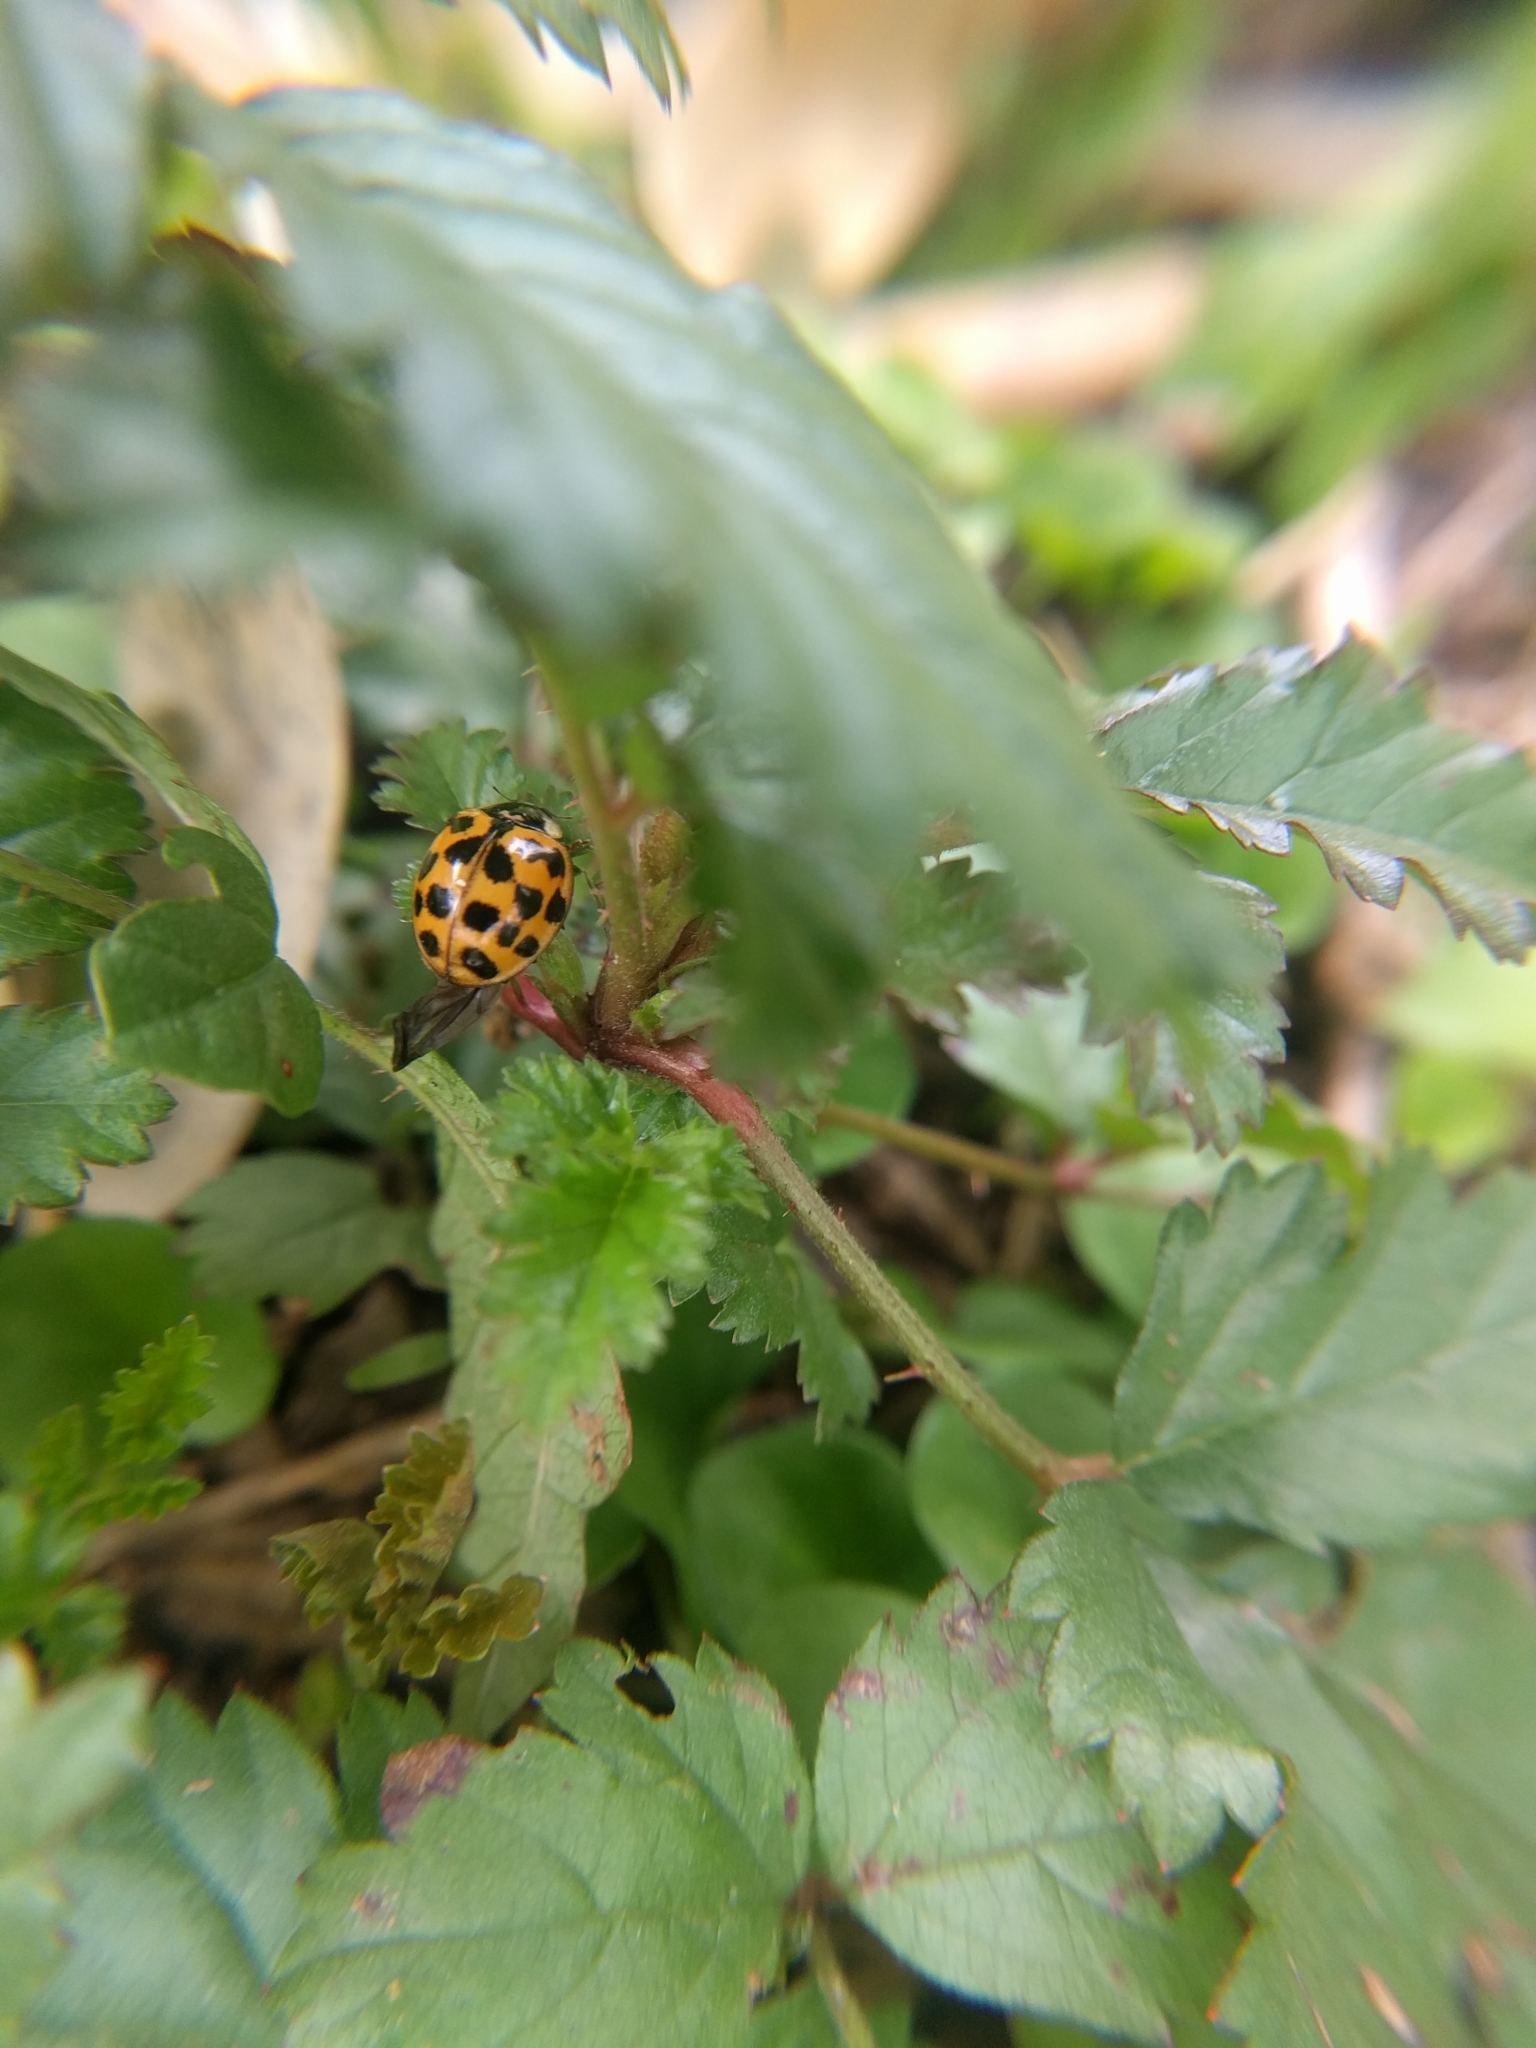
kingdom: Animalia
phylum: Arthropoda
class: Insecta
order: Coleoptera
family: Coccinellidae
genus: Harmonia
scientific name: Harmonia axyridis
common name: Harlequin ladybird
